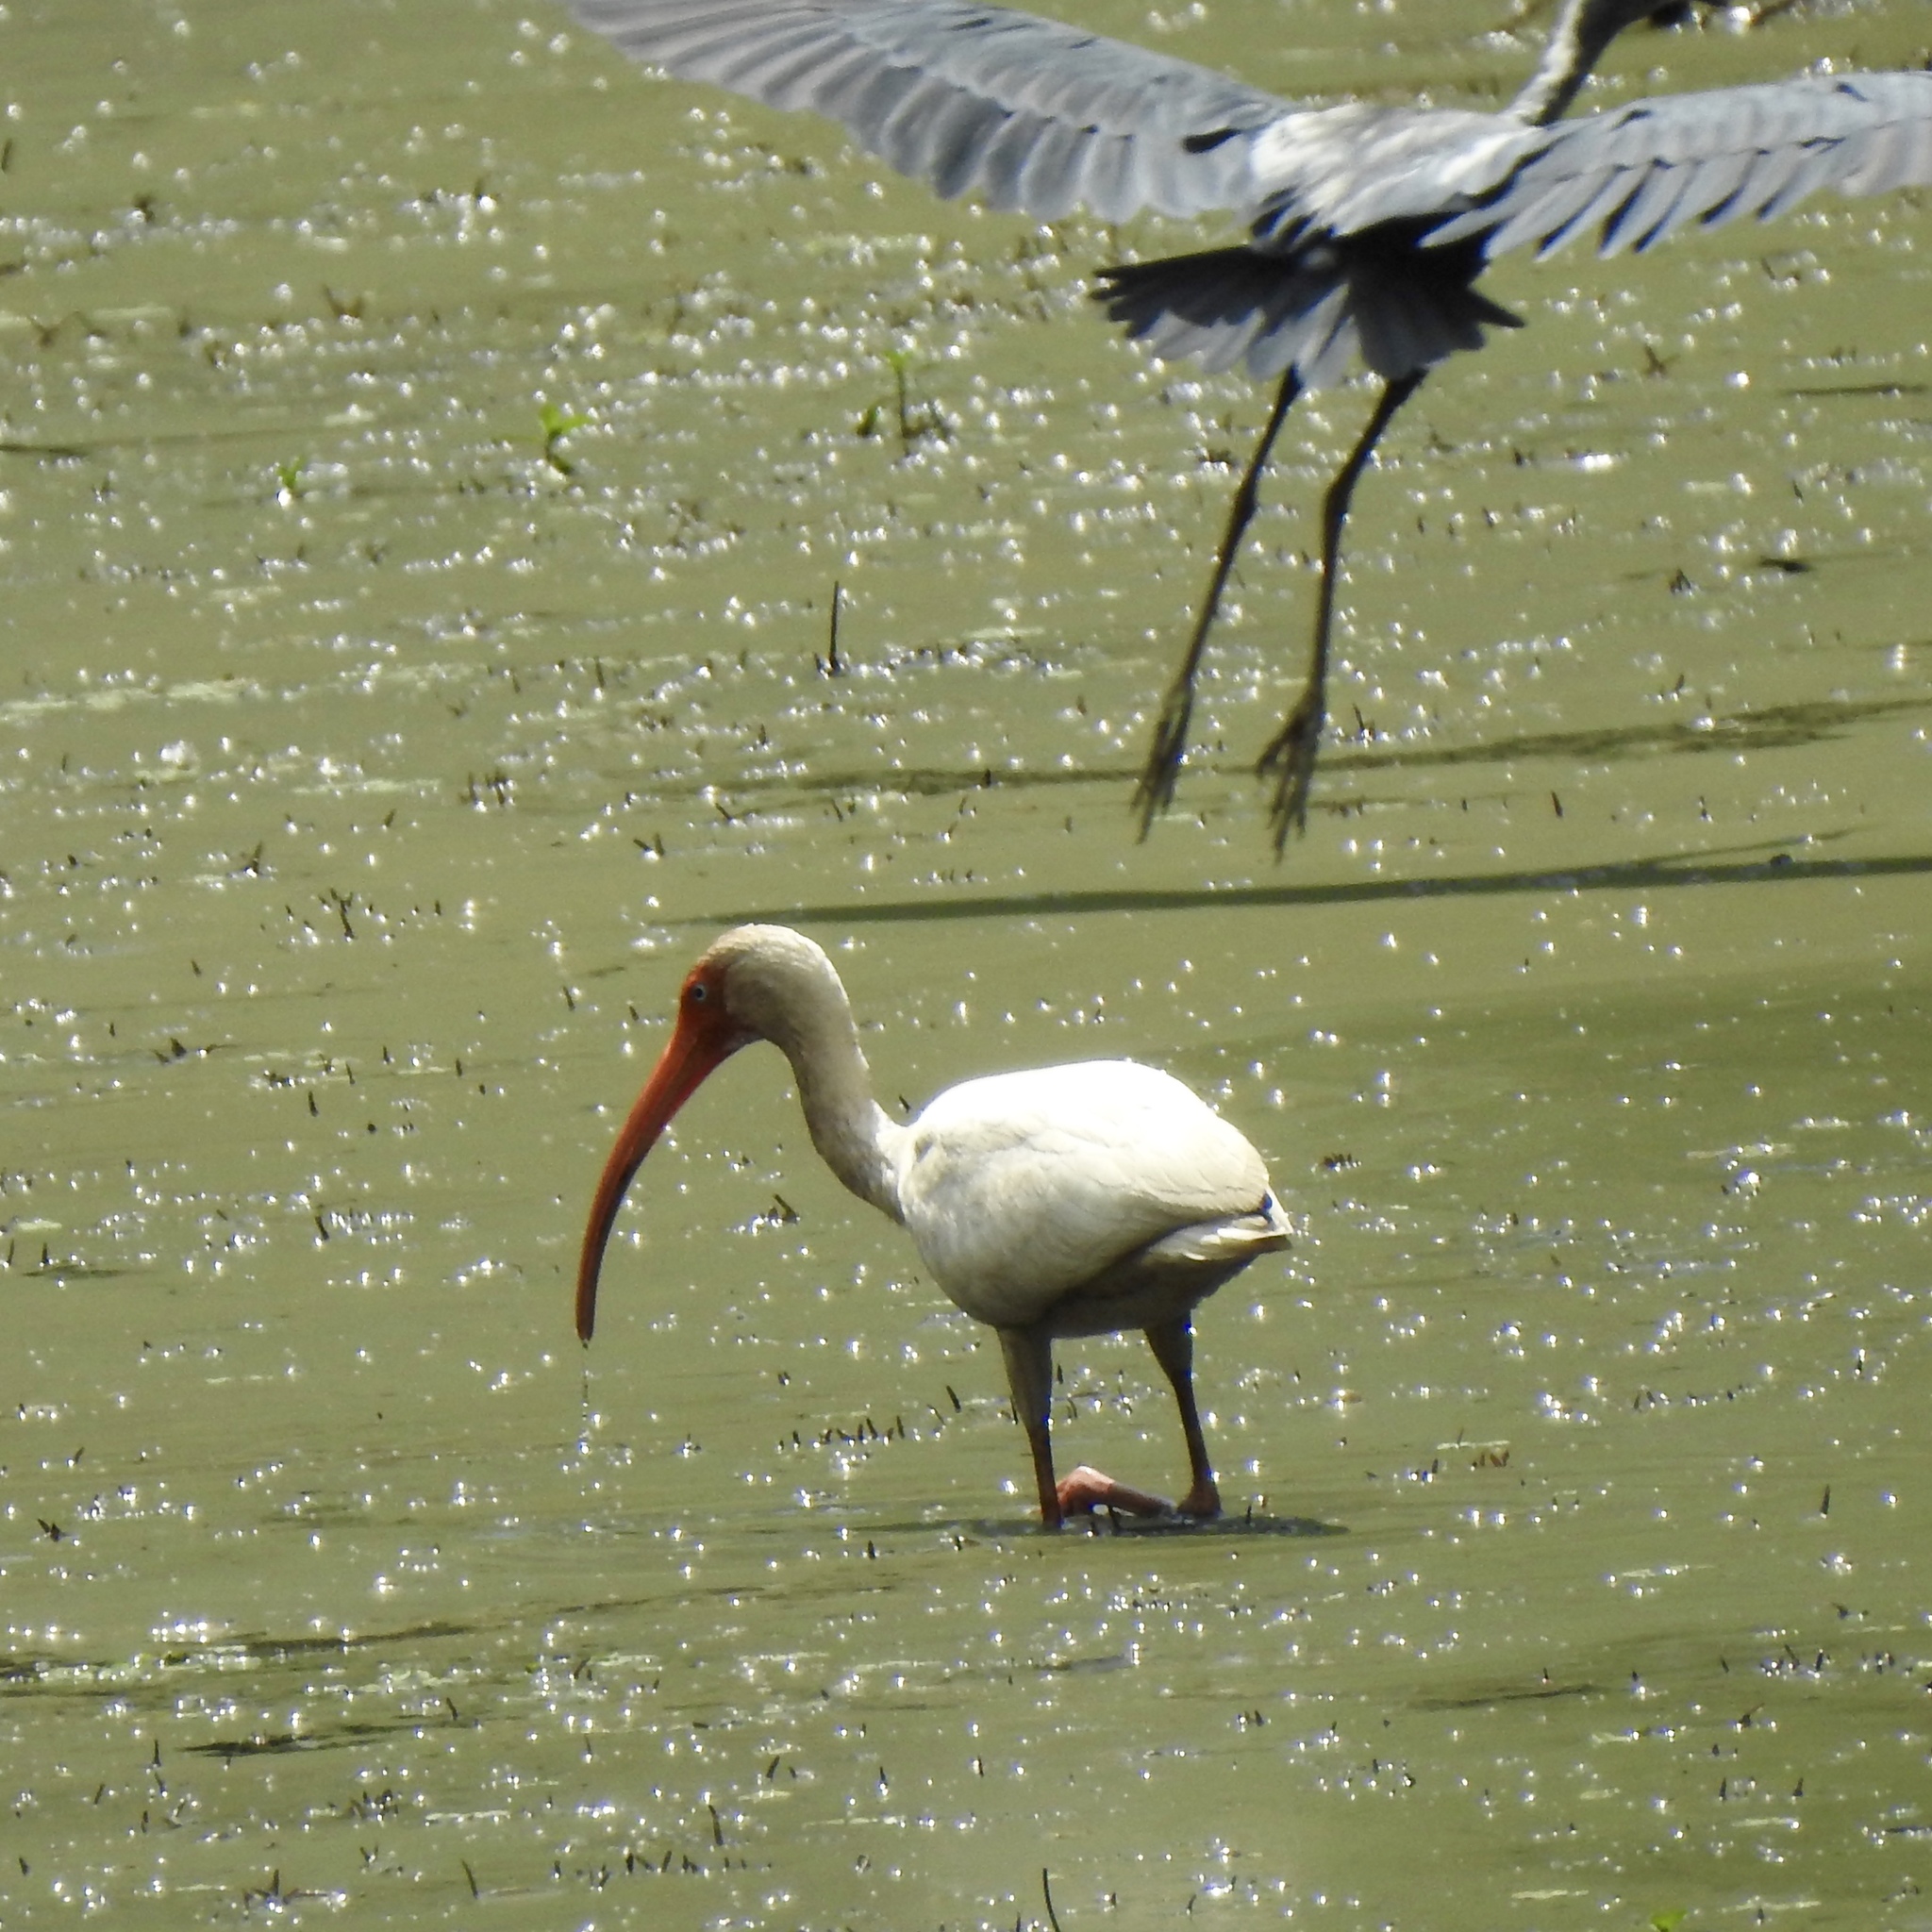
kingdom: Animalia
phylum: Chordata
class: Aves
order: Pelecaniformes
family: Threskiornithidae
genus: Eudocimus
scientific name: Eudocimus albus
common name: White ibis
